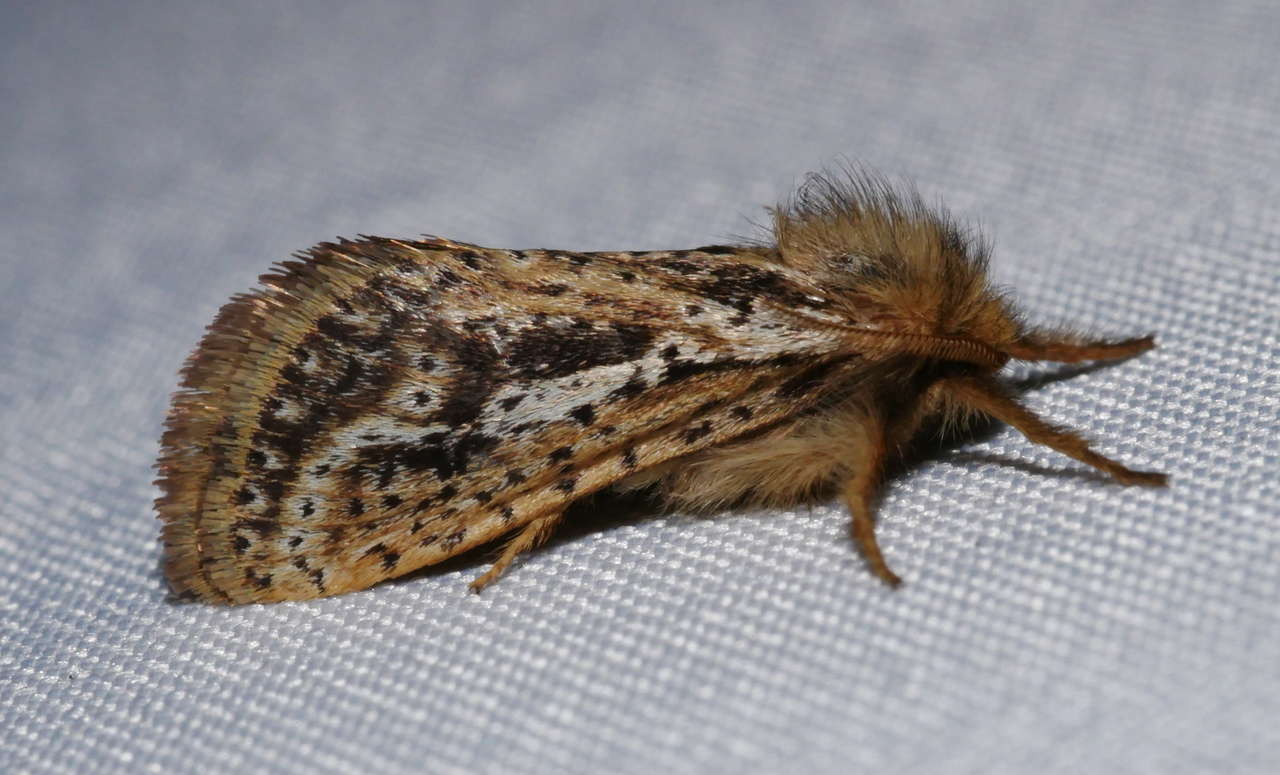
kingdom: Animalia
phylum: Arthropoda
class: Insecta
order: Lepidoptera
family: Hepialidae
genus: Fraus
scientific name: Fraus simulans
